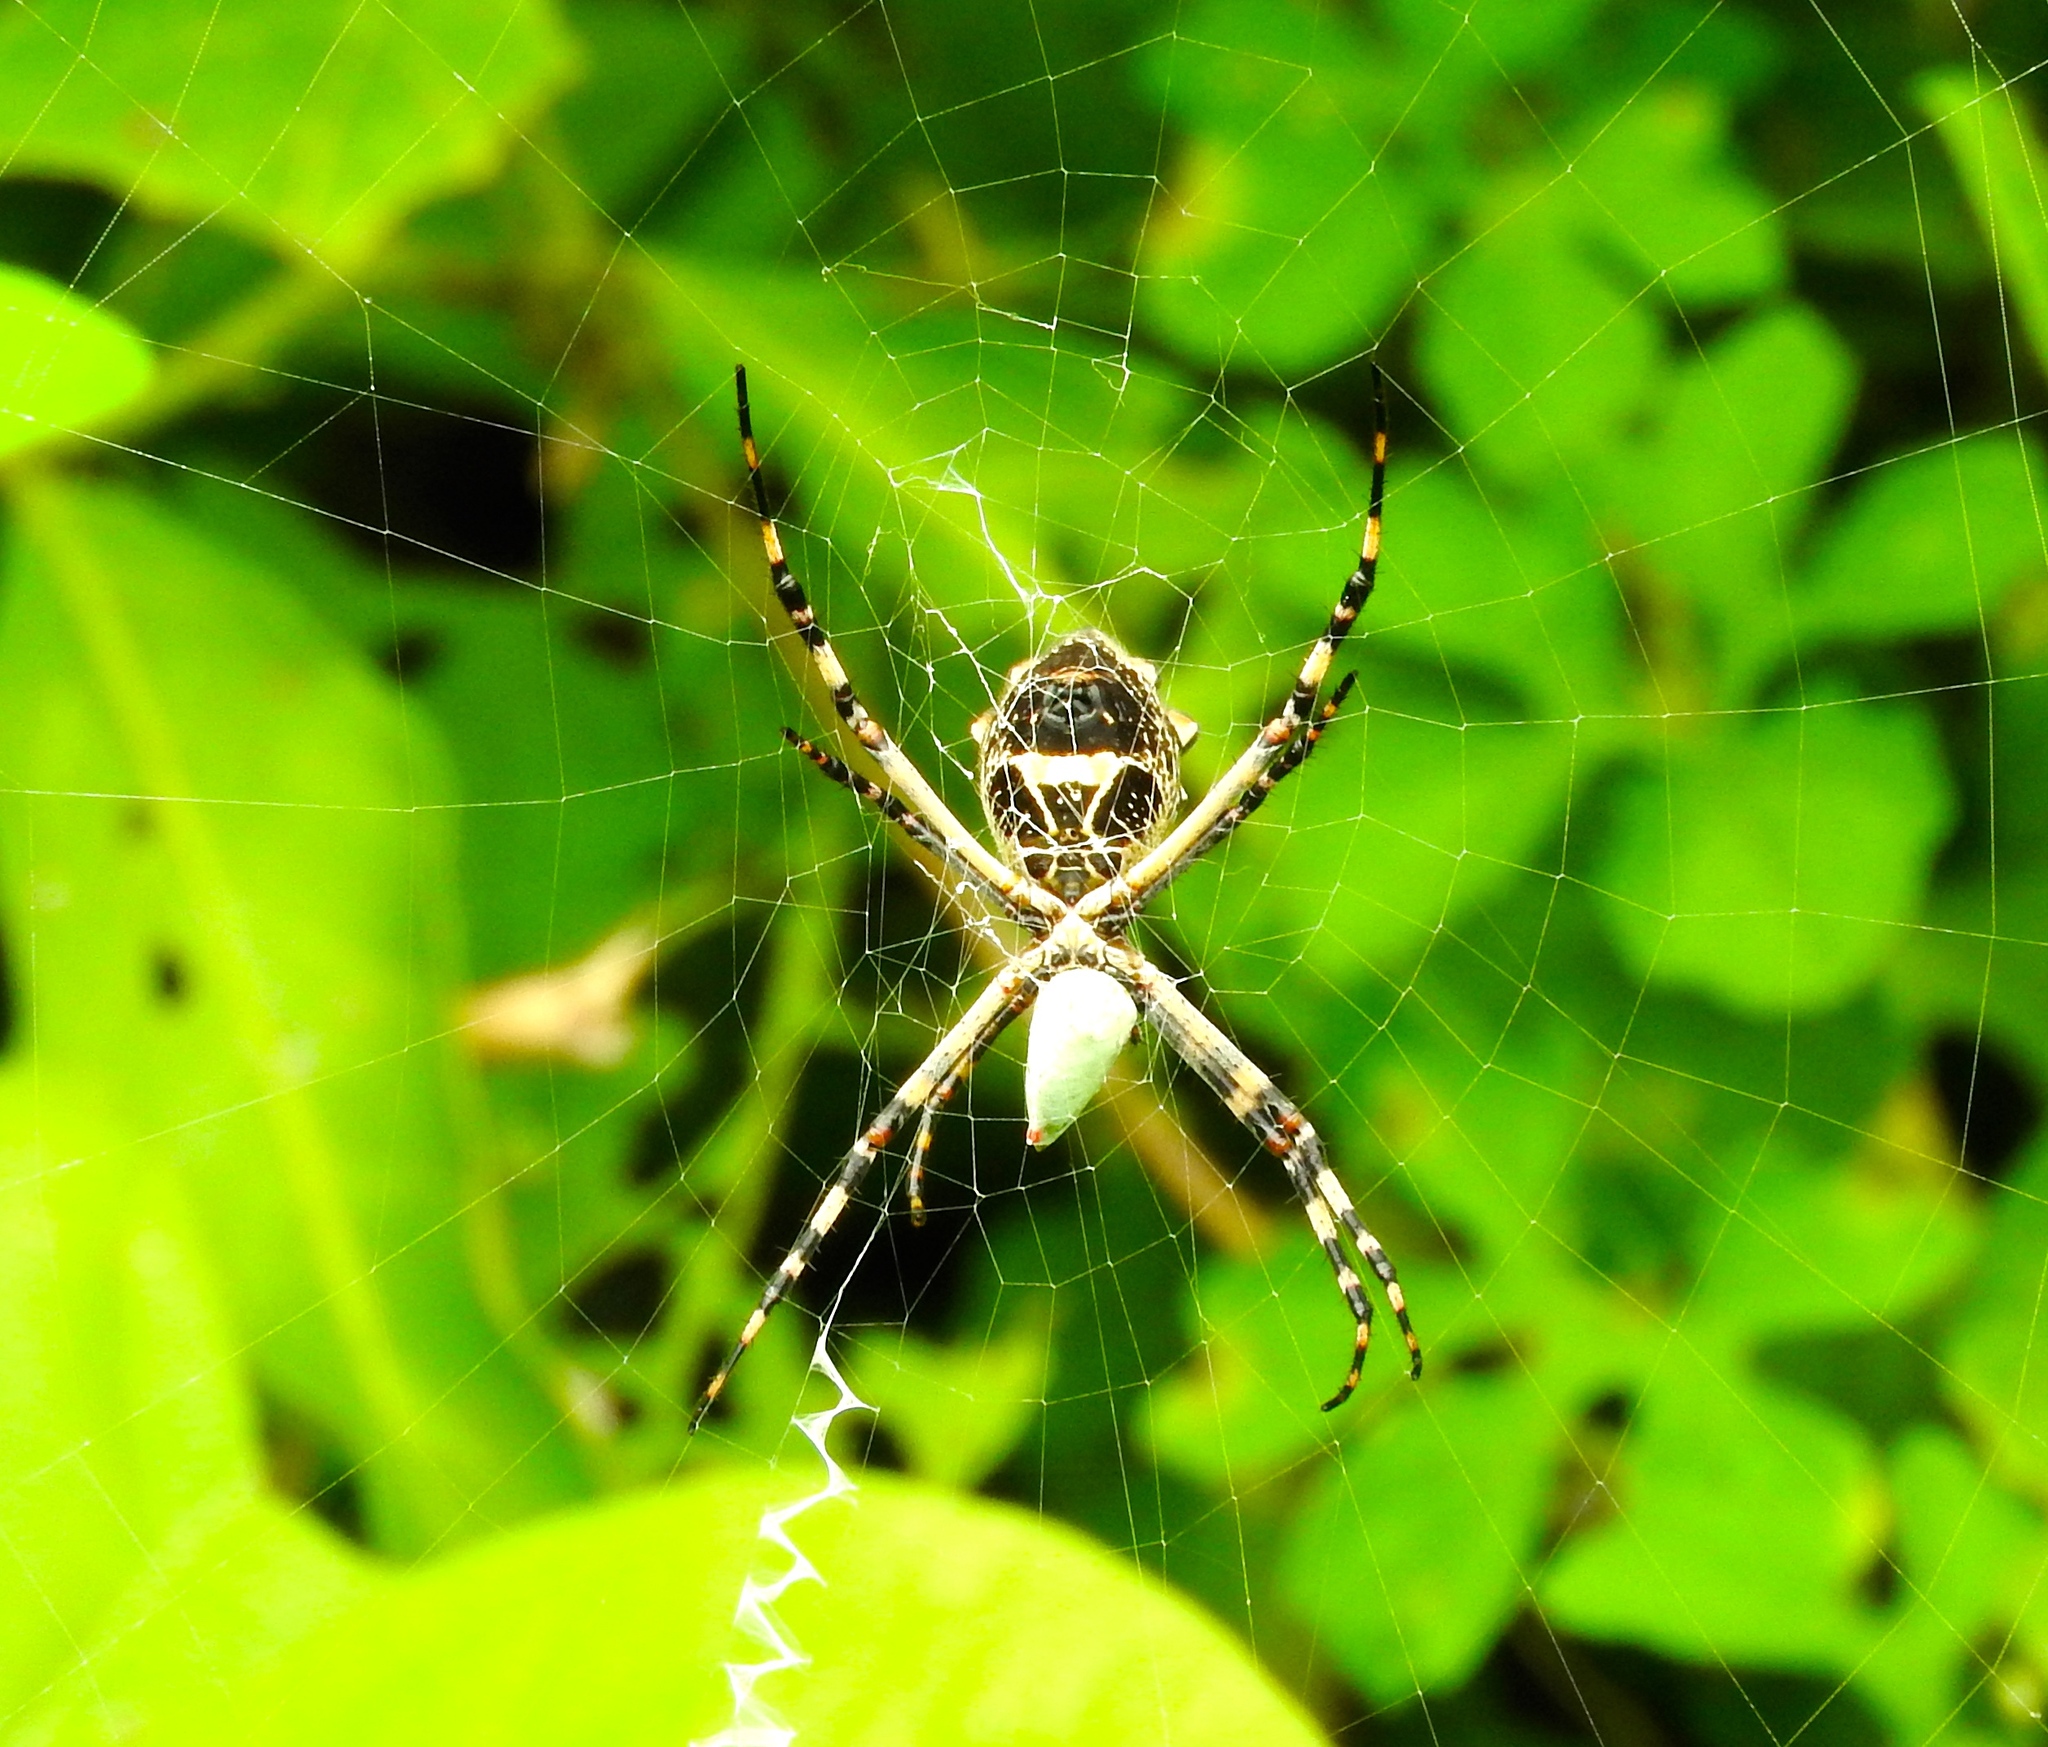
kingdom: Animalia
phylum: Arthropoda
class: Arachnida
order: Araneae
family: Araneidae
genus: Argiope
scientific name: Argiope argentata
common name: Orb weavers
